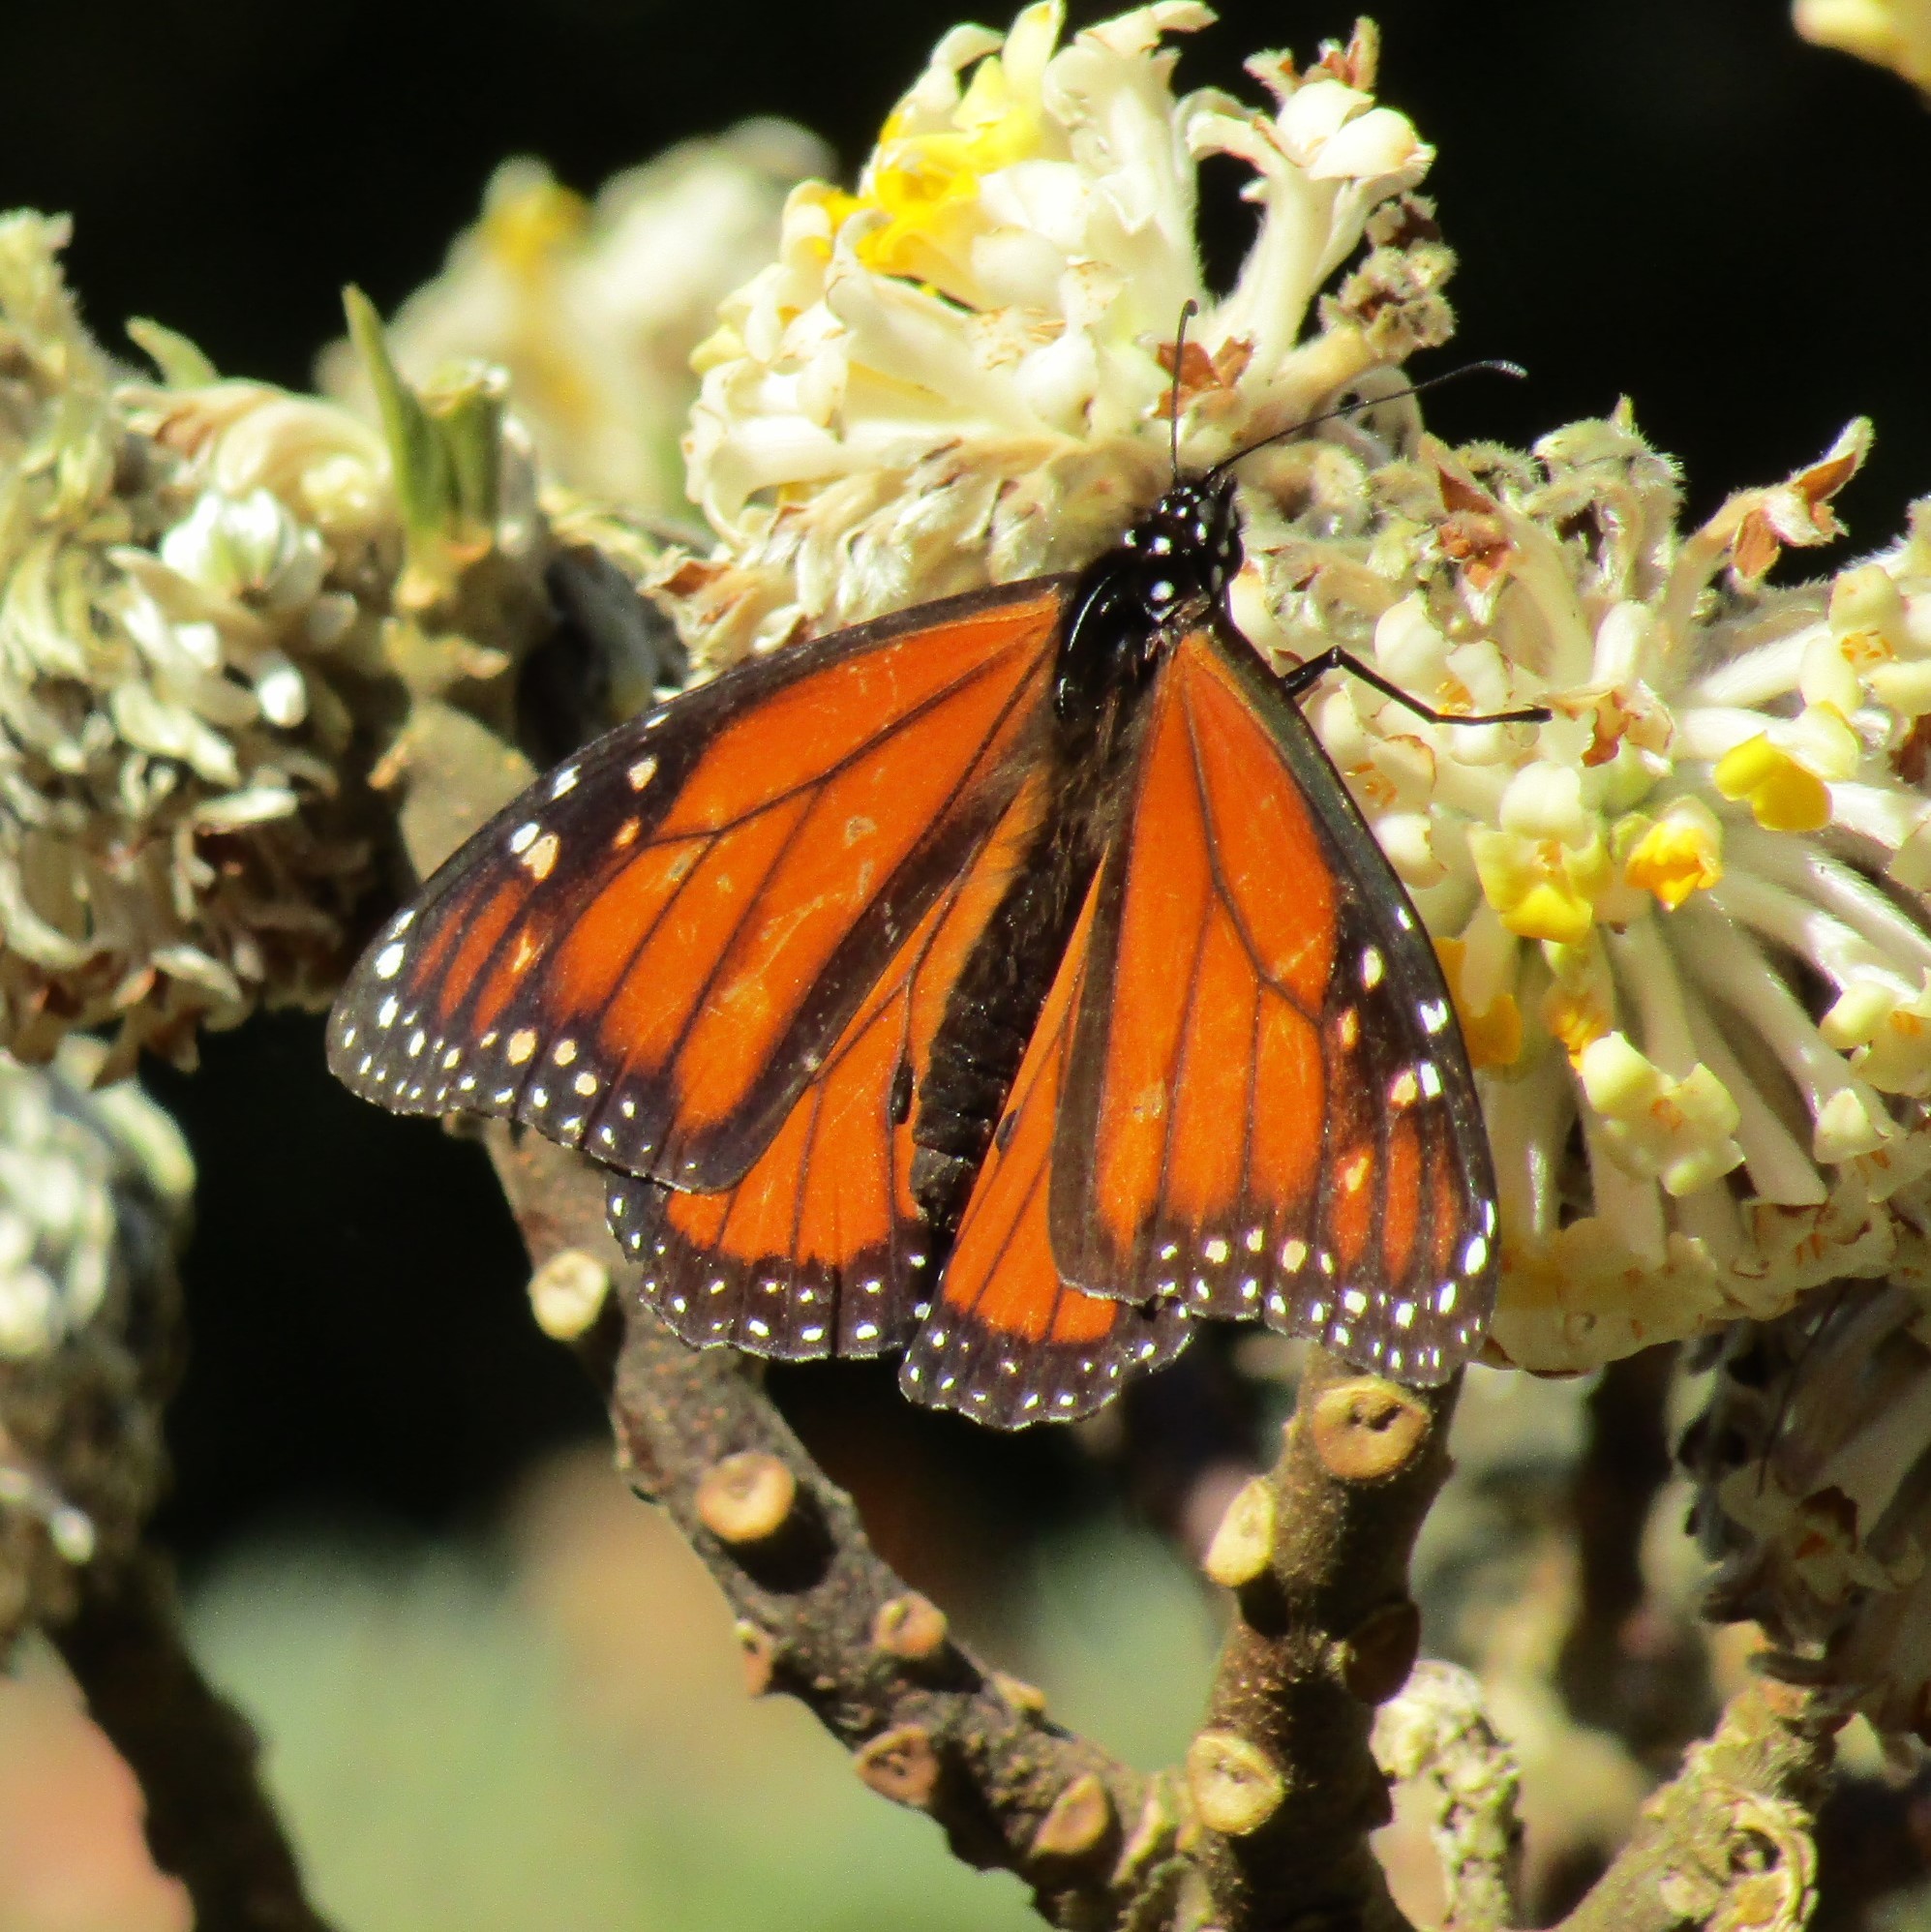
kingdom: Animalia
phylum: Arthropoda
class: Insecta
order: Lepidoptera
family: Nymphalidae
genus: Danaus
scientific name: Danaus plexippus
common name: Monarch
